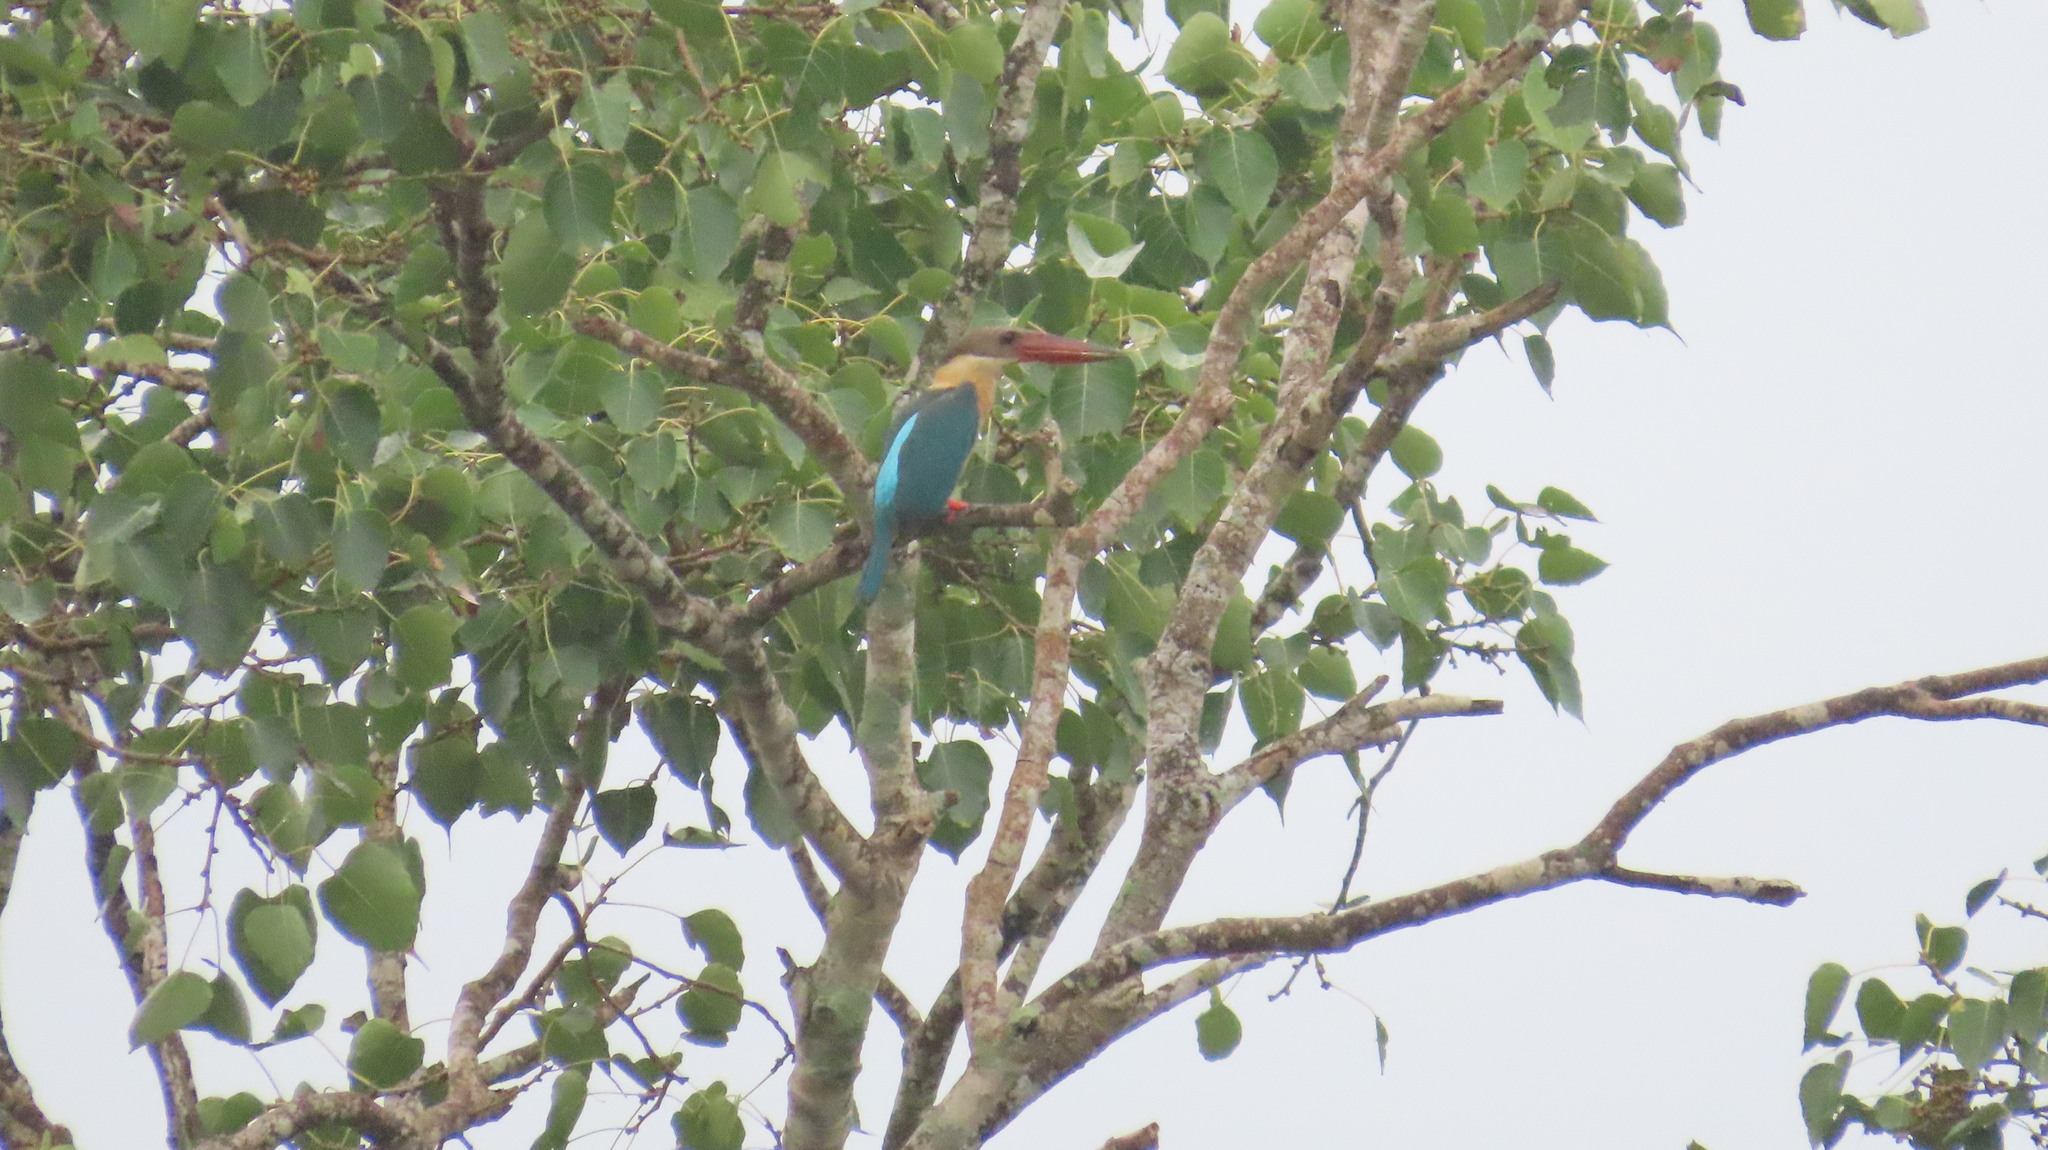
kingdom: Animalia
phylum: Chordata
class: Aves
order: Coraciiformes
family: Alcedinidae
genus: Pelargopsis
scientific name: Pelargopsis capensis
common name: Stork-billed kingfisher
